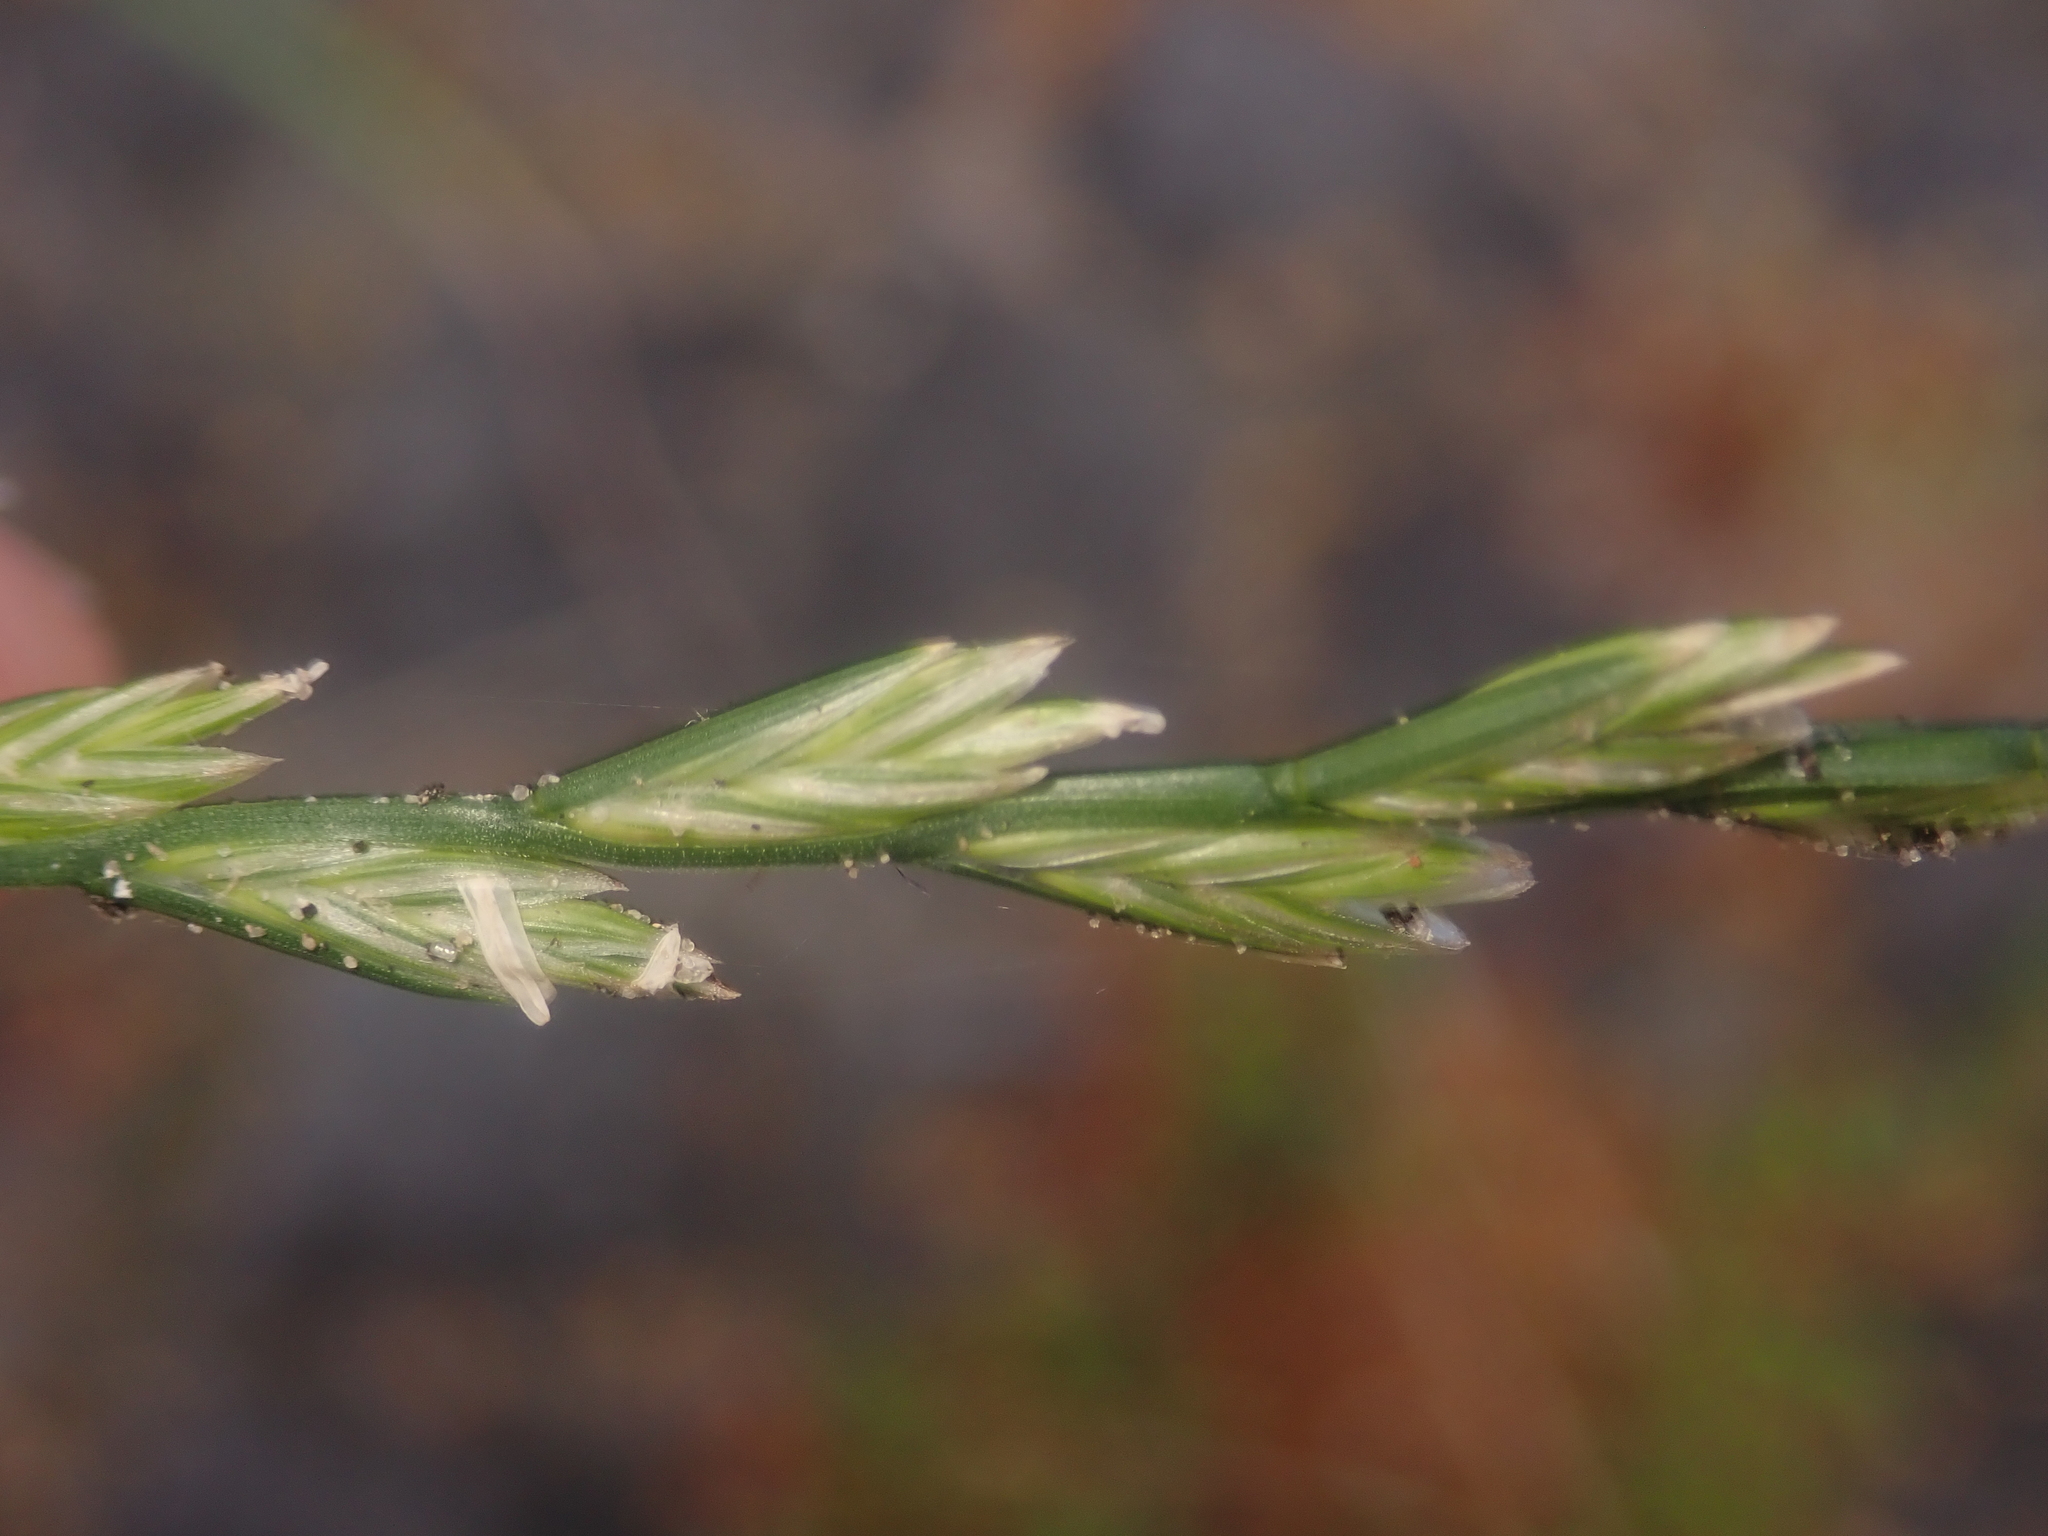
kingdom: Plantae
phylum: Tracheophyta
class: Liliopsida
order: Poales
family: Poaceae
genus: Lolium
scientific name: Lolium perenne
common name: Perennial ryegrass
